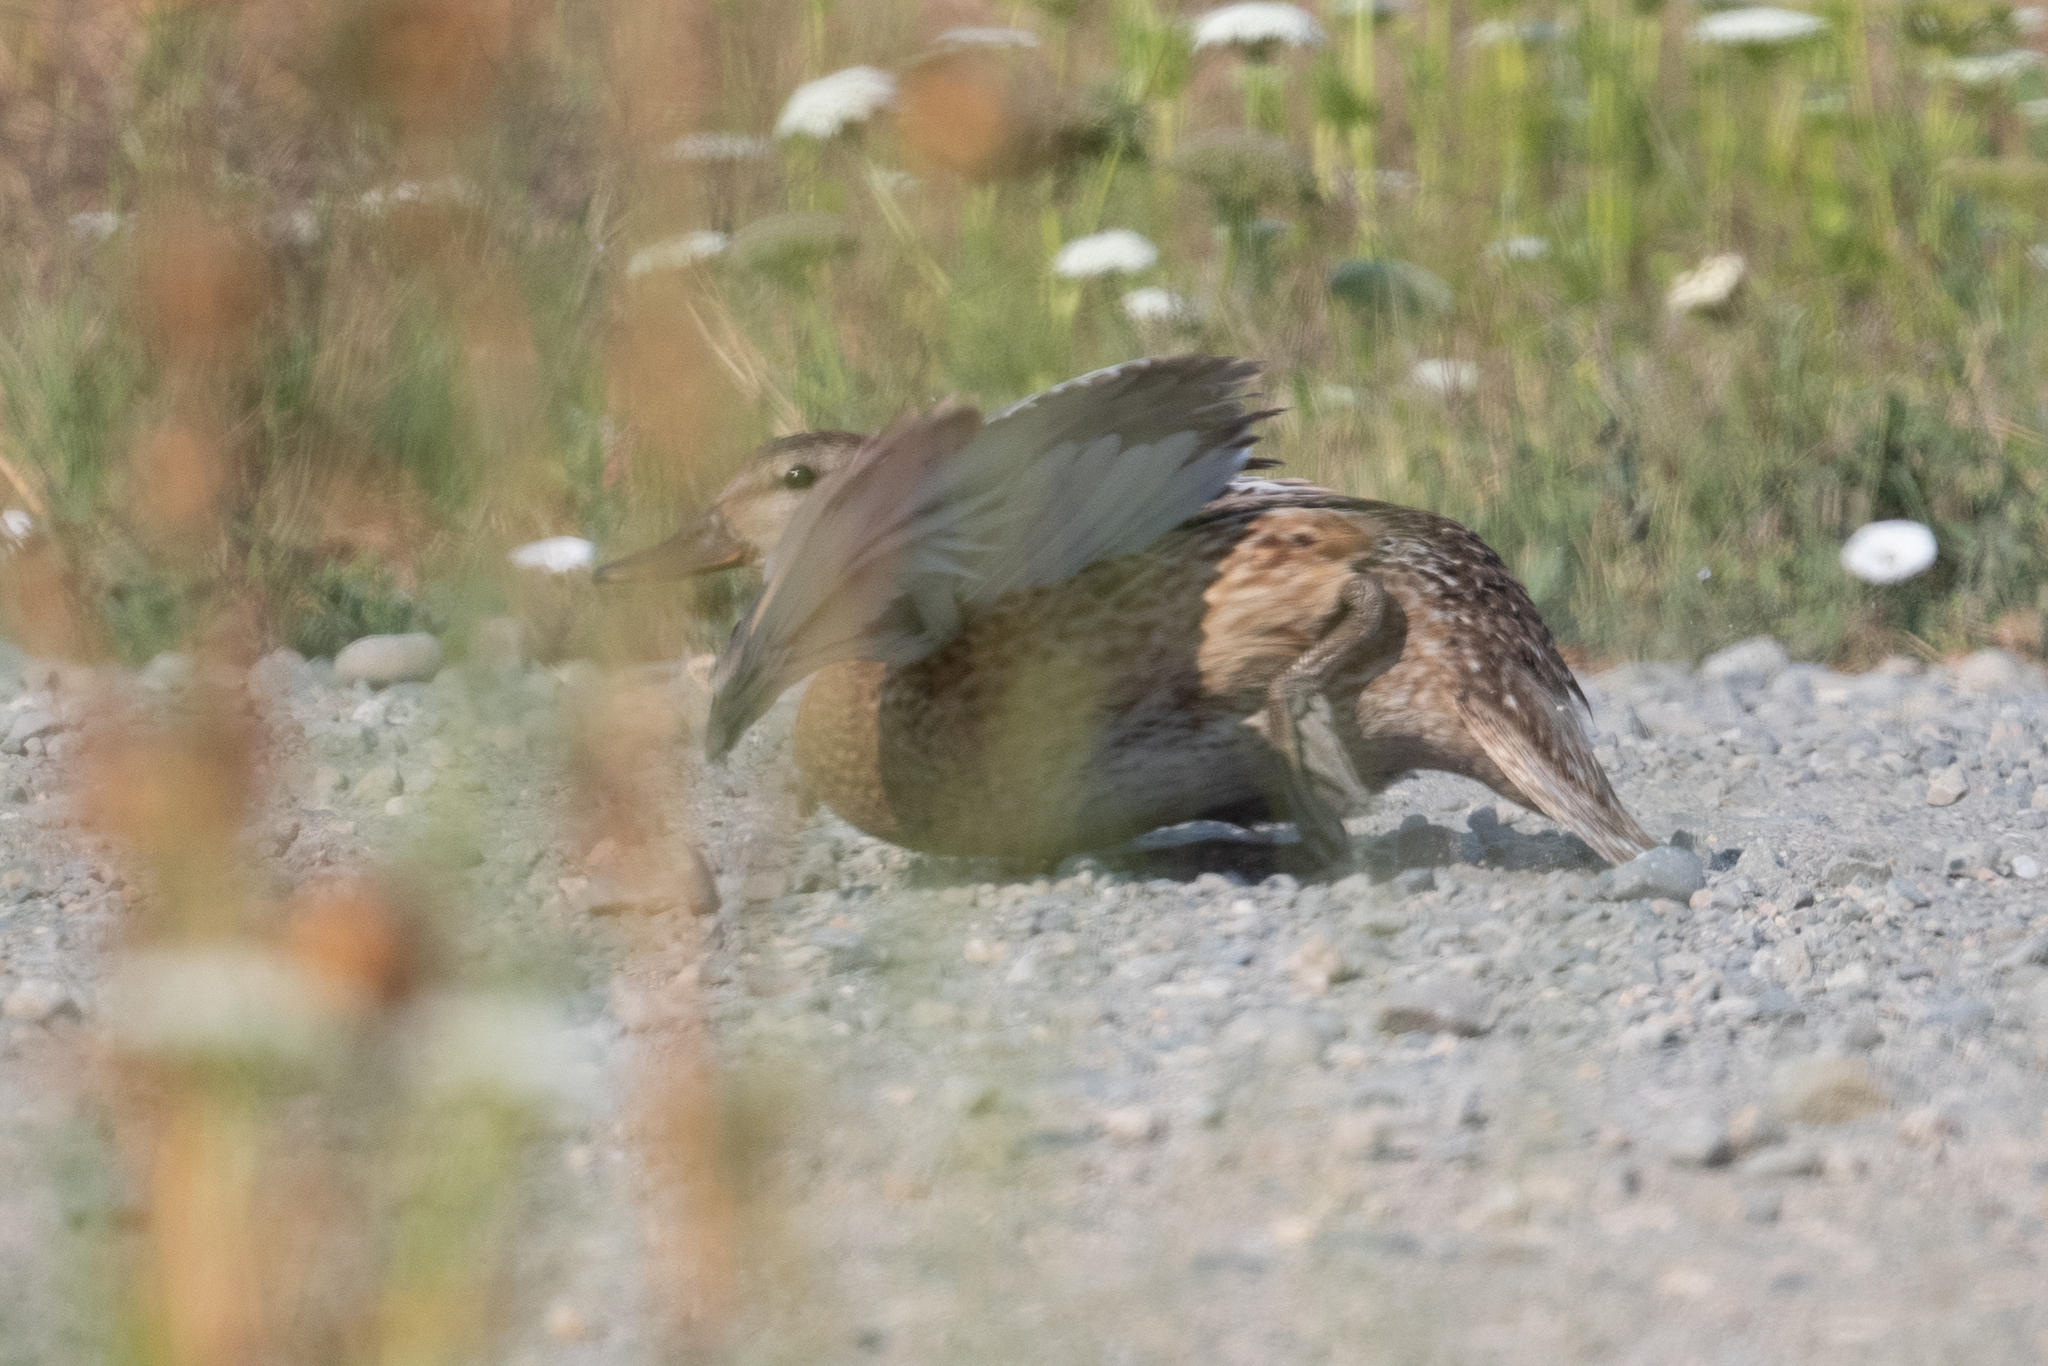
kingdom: Animalia
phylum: Chordata
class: Aves
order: Anseriformes
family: Anatidae
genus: Anas
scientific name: Anas platyrhynchos
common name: Mallard
